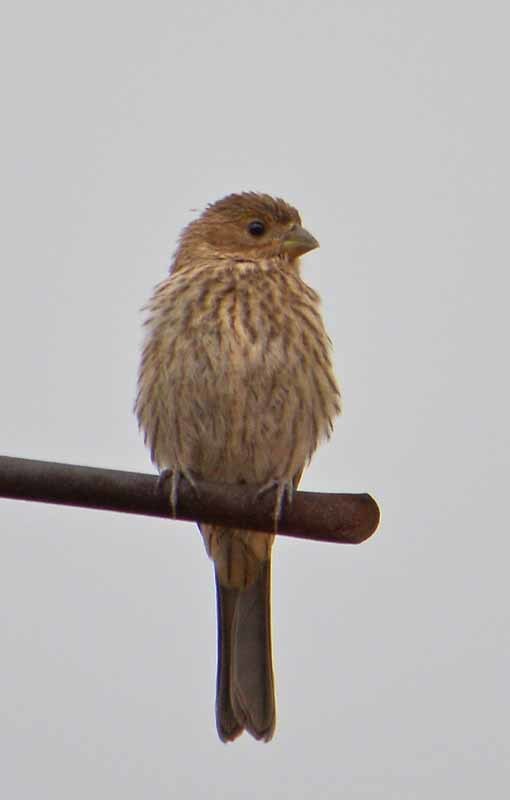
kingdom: Animalia
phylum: Chordata
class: Aves
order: Passeriformes
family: Fringillidae
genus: Haemorhous
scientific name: Haemorhous mexicanus
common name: House finch
